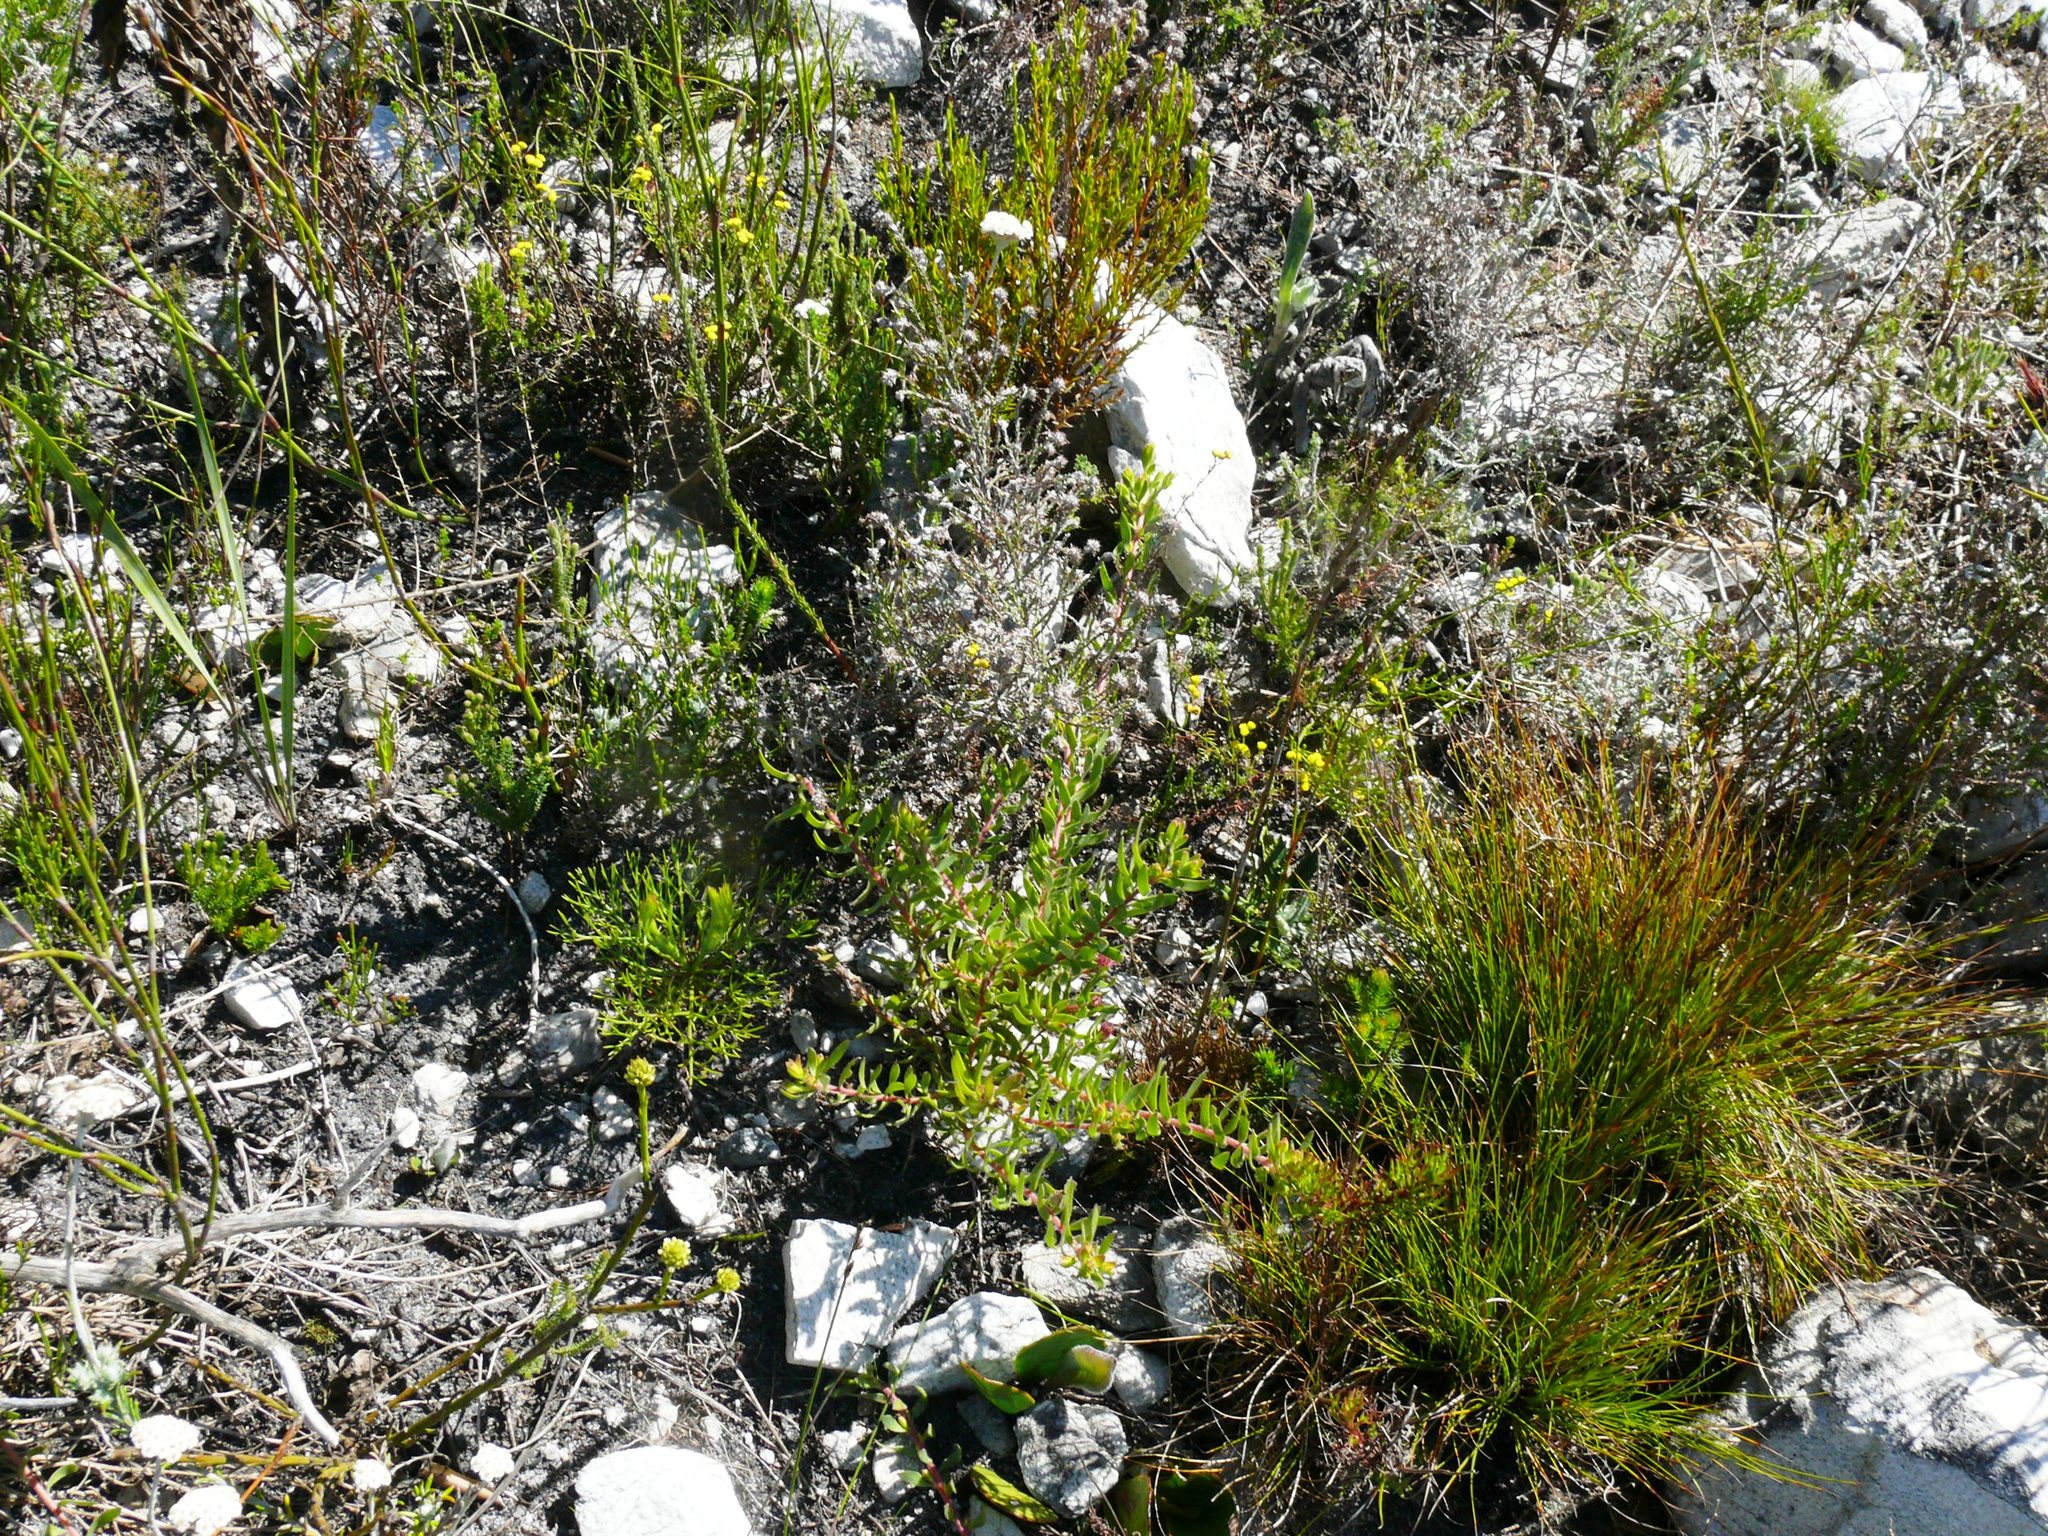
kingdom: Plantae
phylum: Tracheophyta
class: Magnoliopsida
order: Proteales
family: Proteaceae
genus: Diastella
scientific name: Diastella divaricata
